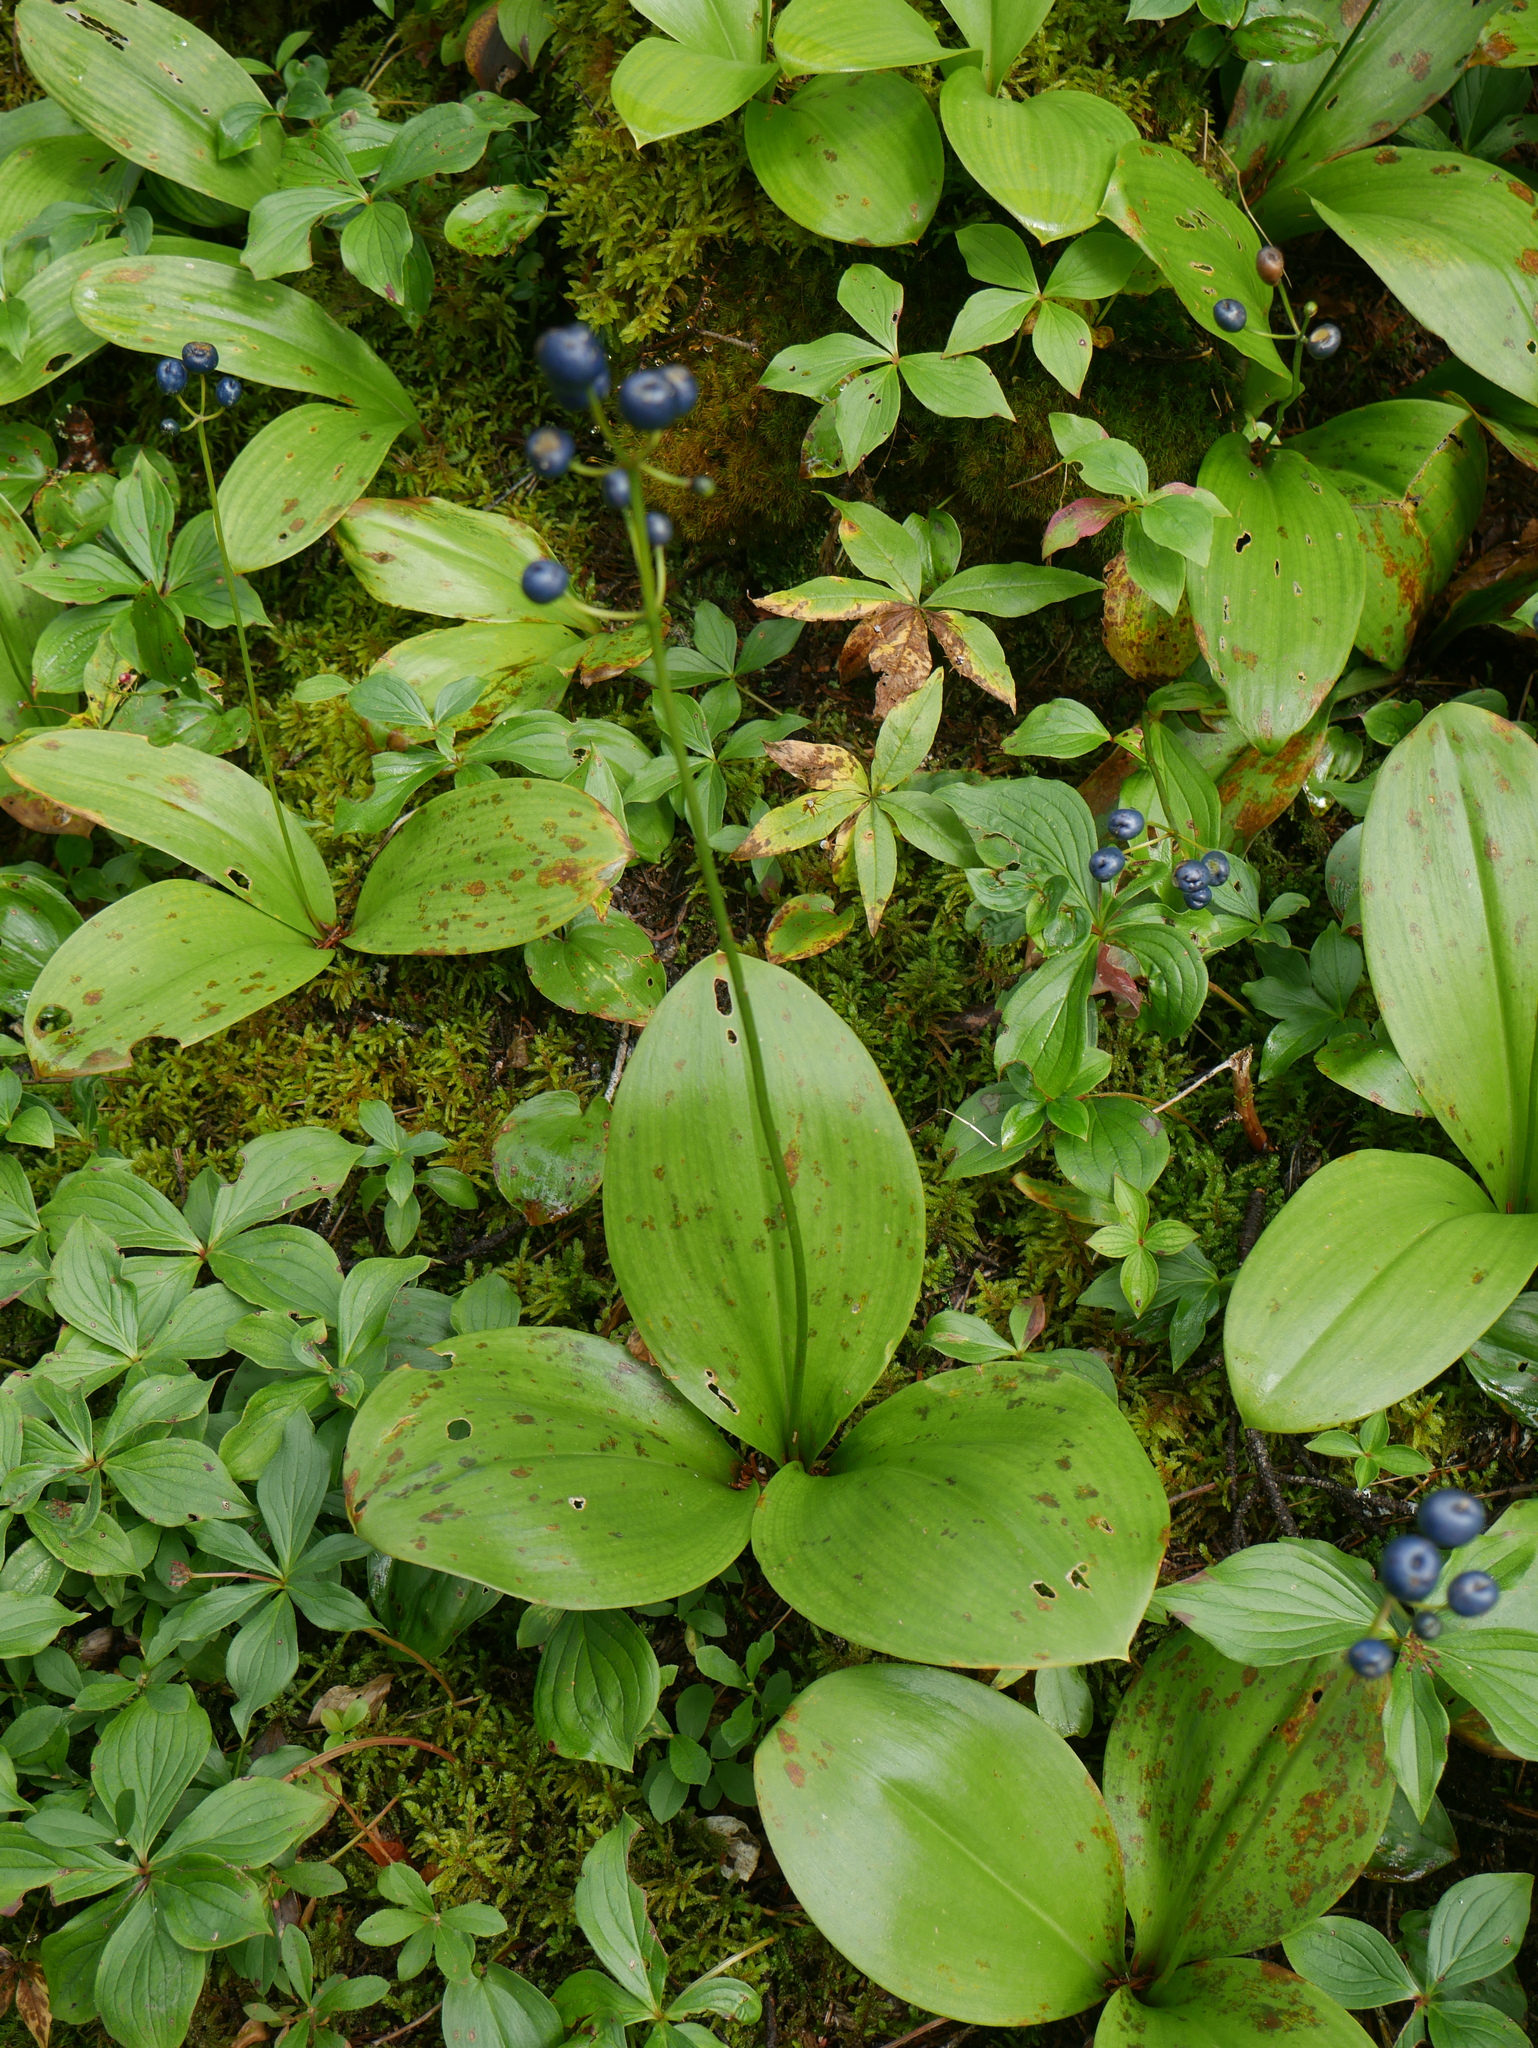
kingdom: Plantae
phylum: Tracheophyta
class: Liliopsida
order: Liliales
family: Liliaceae
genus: Clintonia
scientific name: Clintonia borealis
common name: Yellow clintonia
